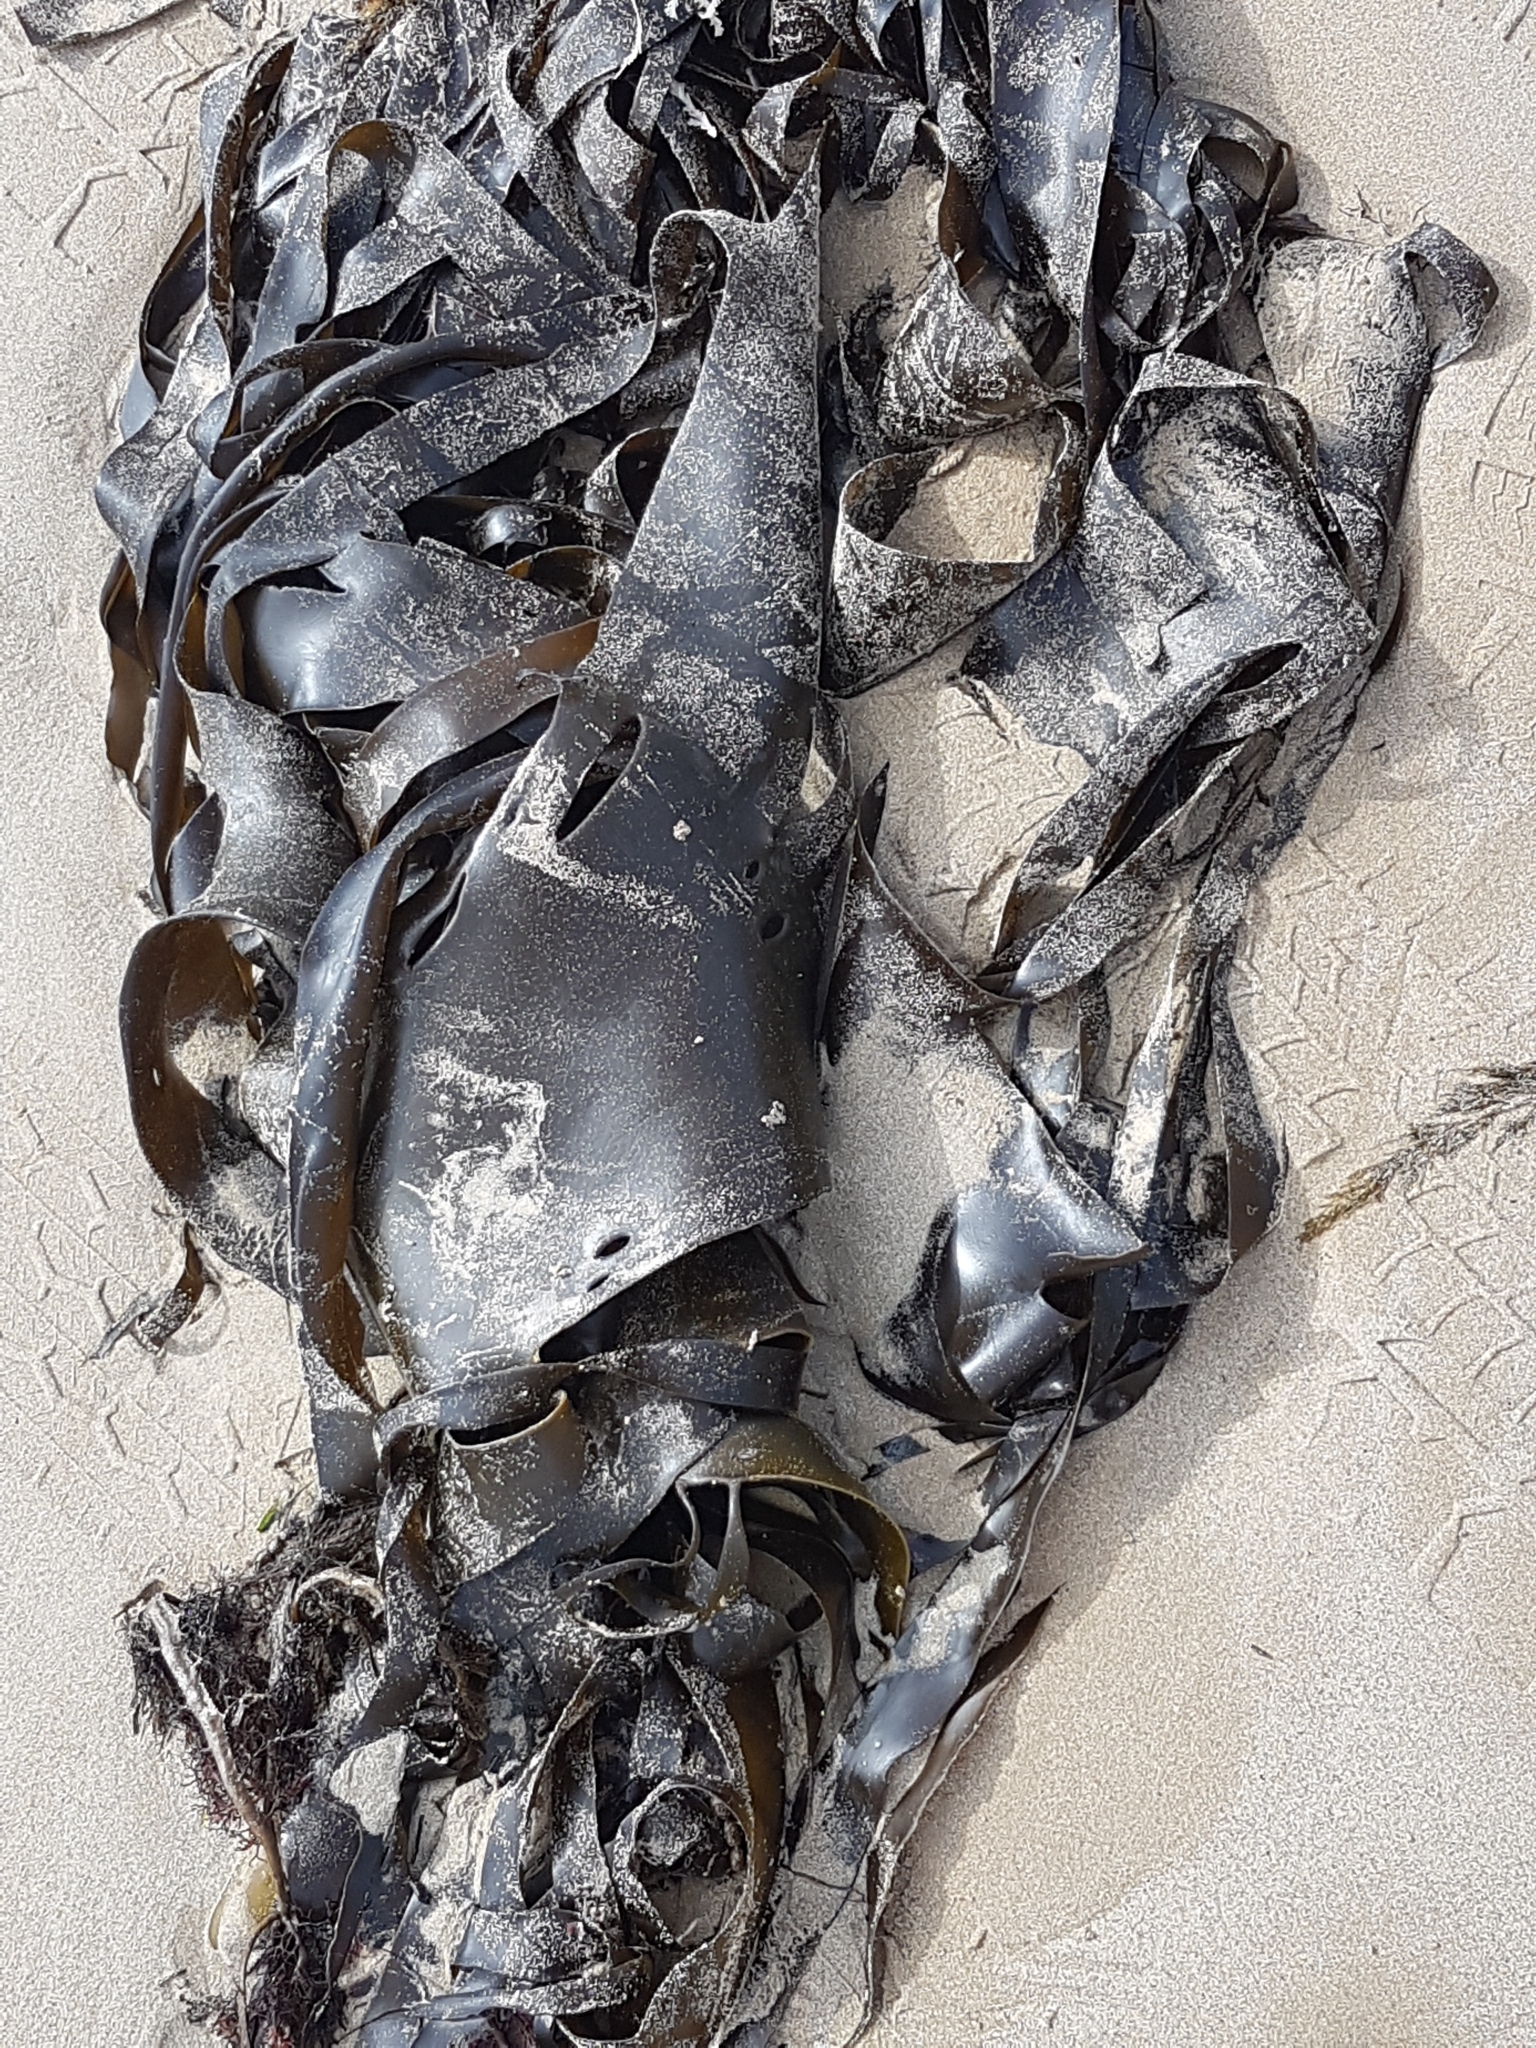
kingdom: Chromista
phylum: Ochrophyta
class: Phaeophyceae
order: Fucales
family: Durvillaeaceae
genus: Durvillaea
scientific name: Durvillaea
